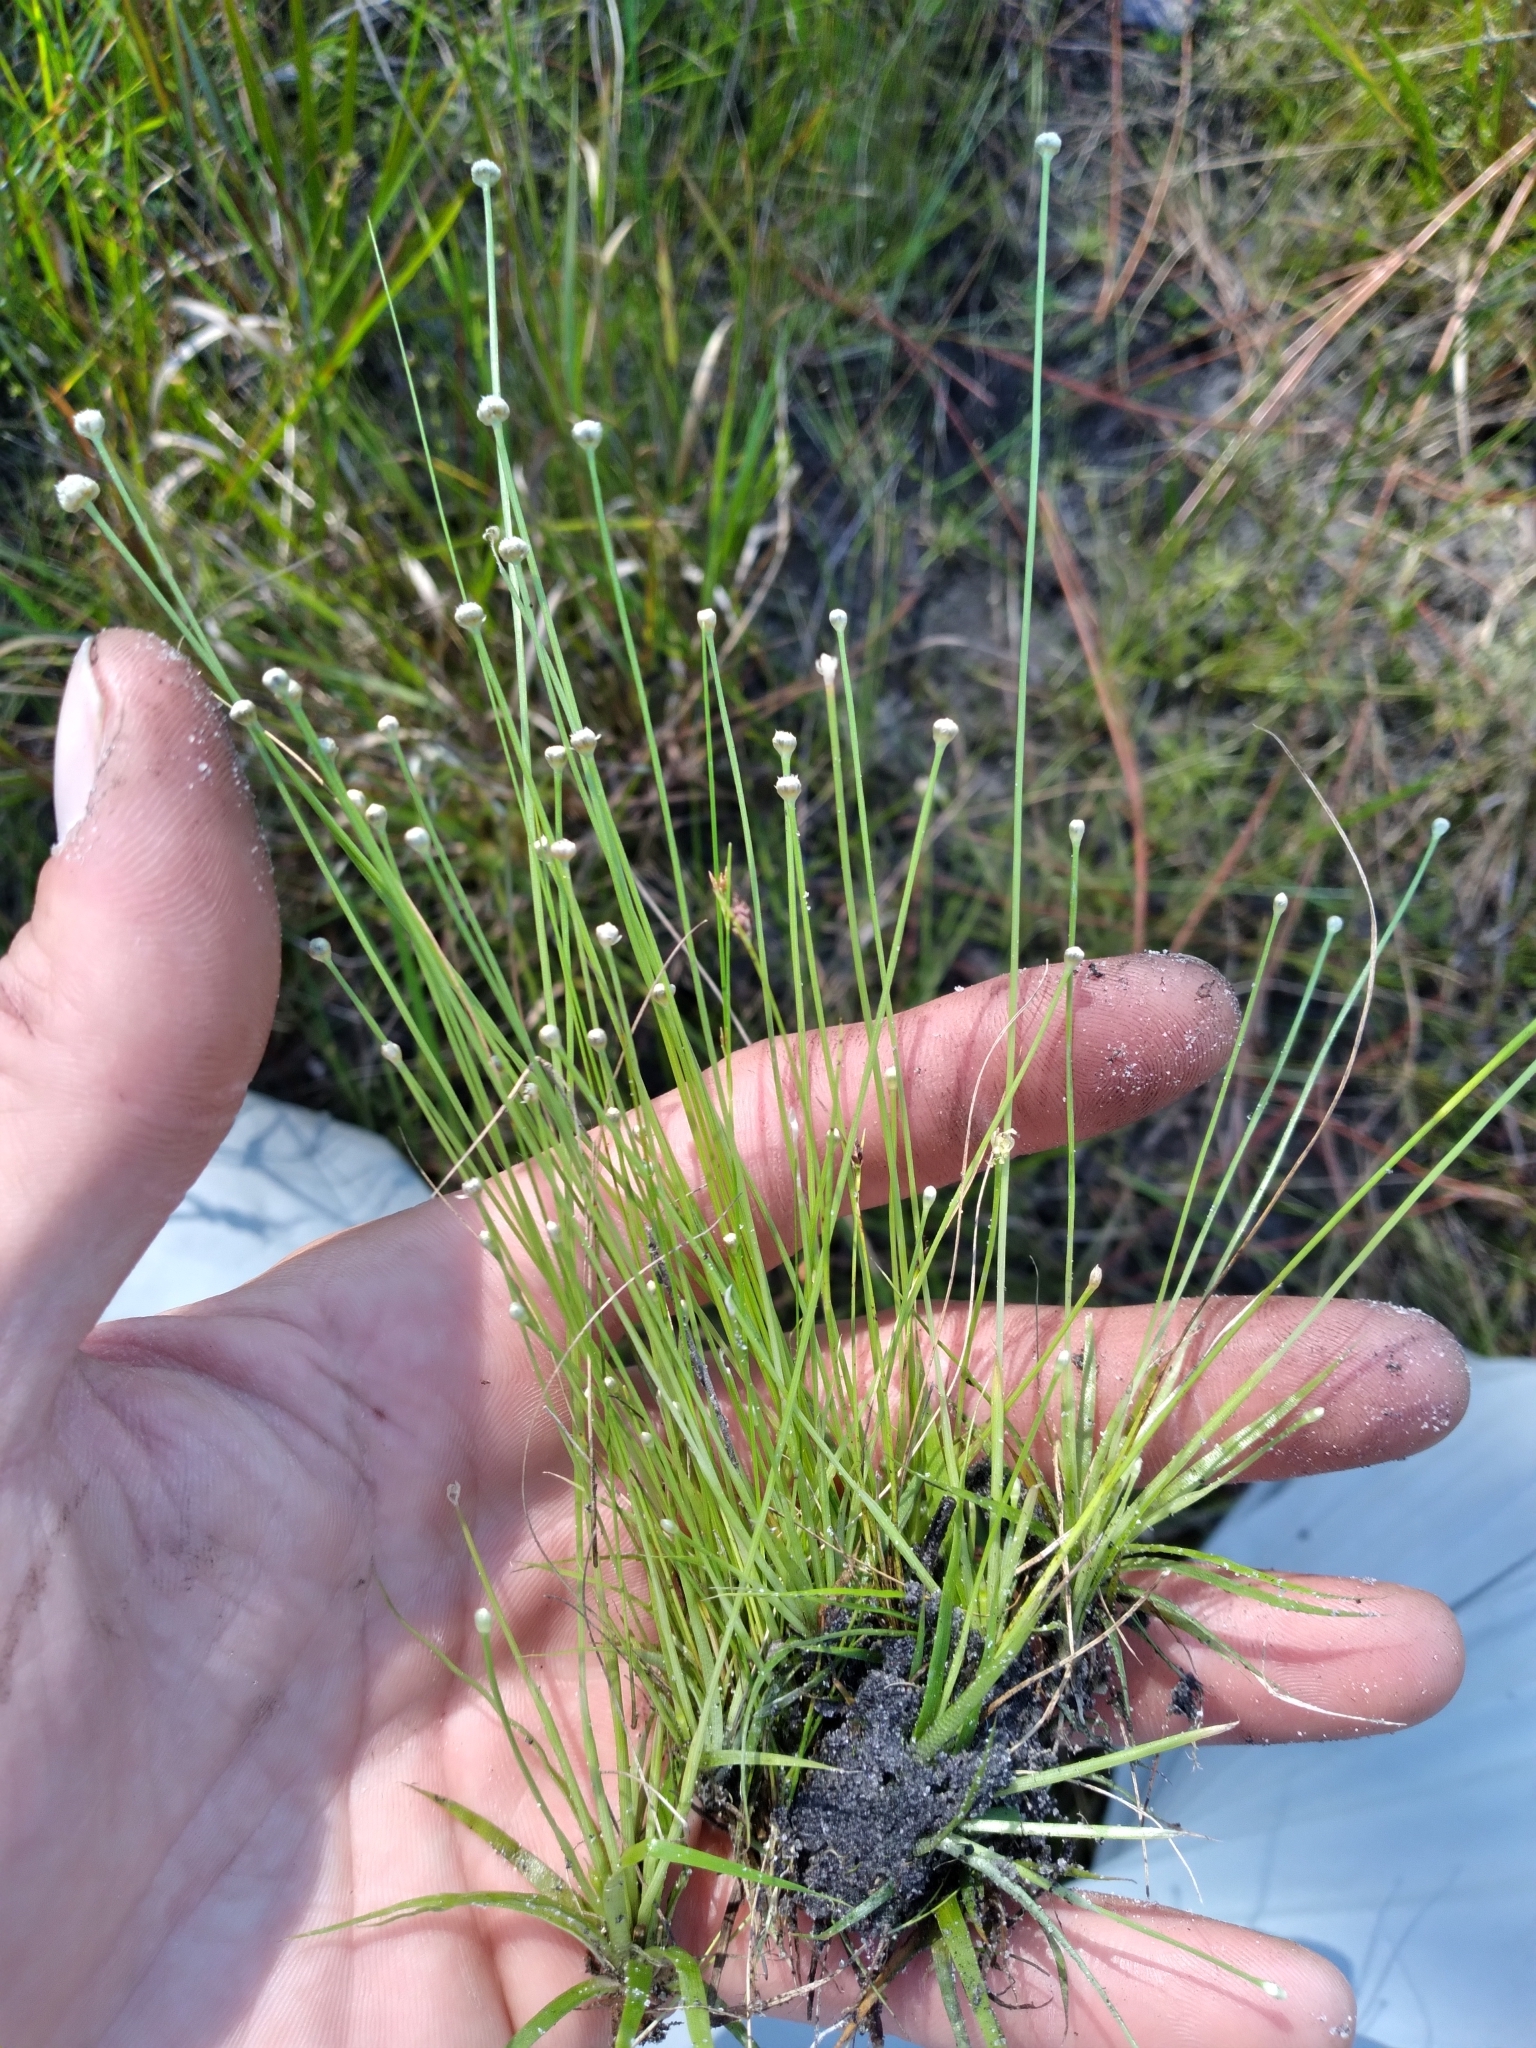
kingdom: Plantae
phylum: Tracheophyta
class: Liliopsida
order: Poales
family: Eriocaulaceae
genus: Eriocaulon
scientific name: Eriocaulon ravenelii
